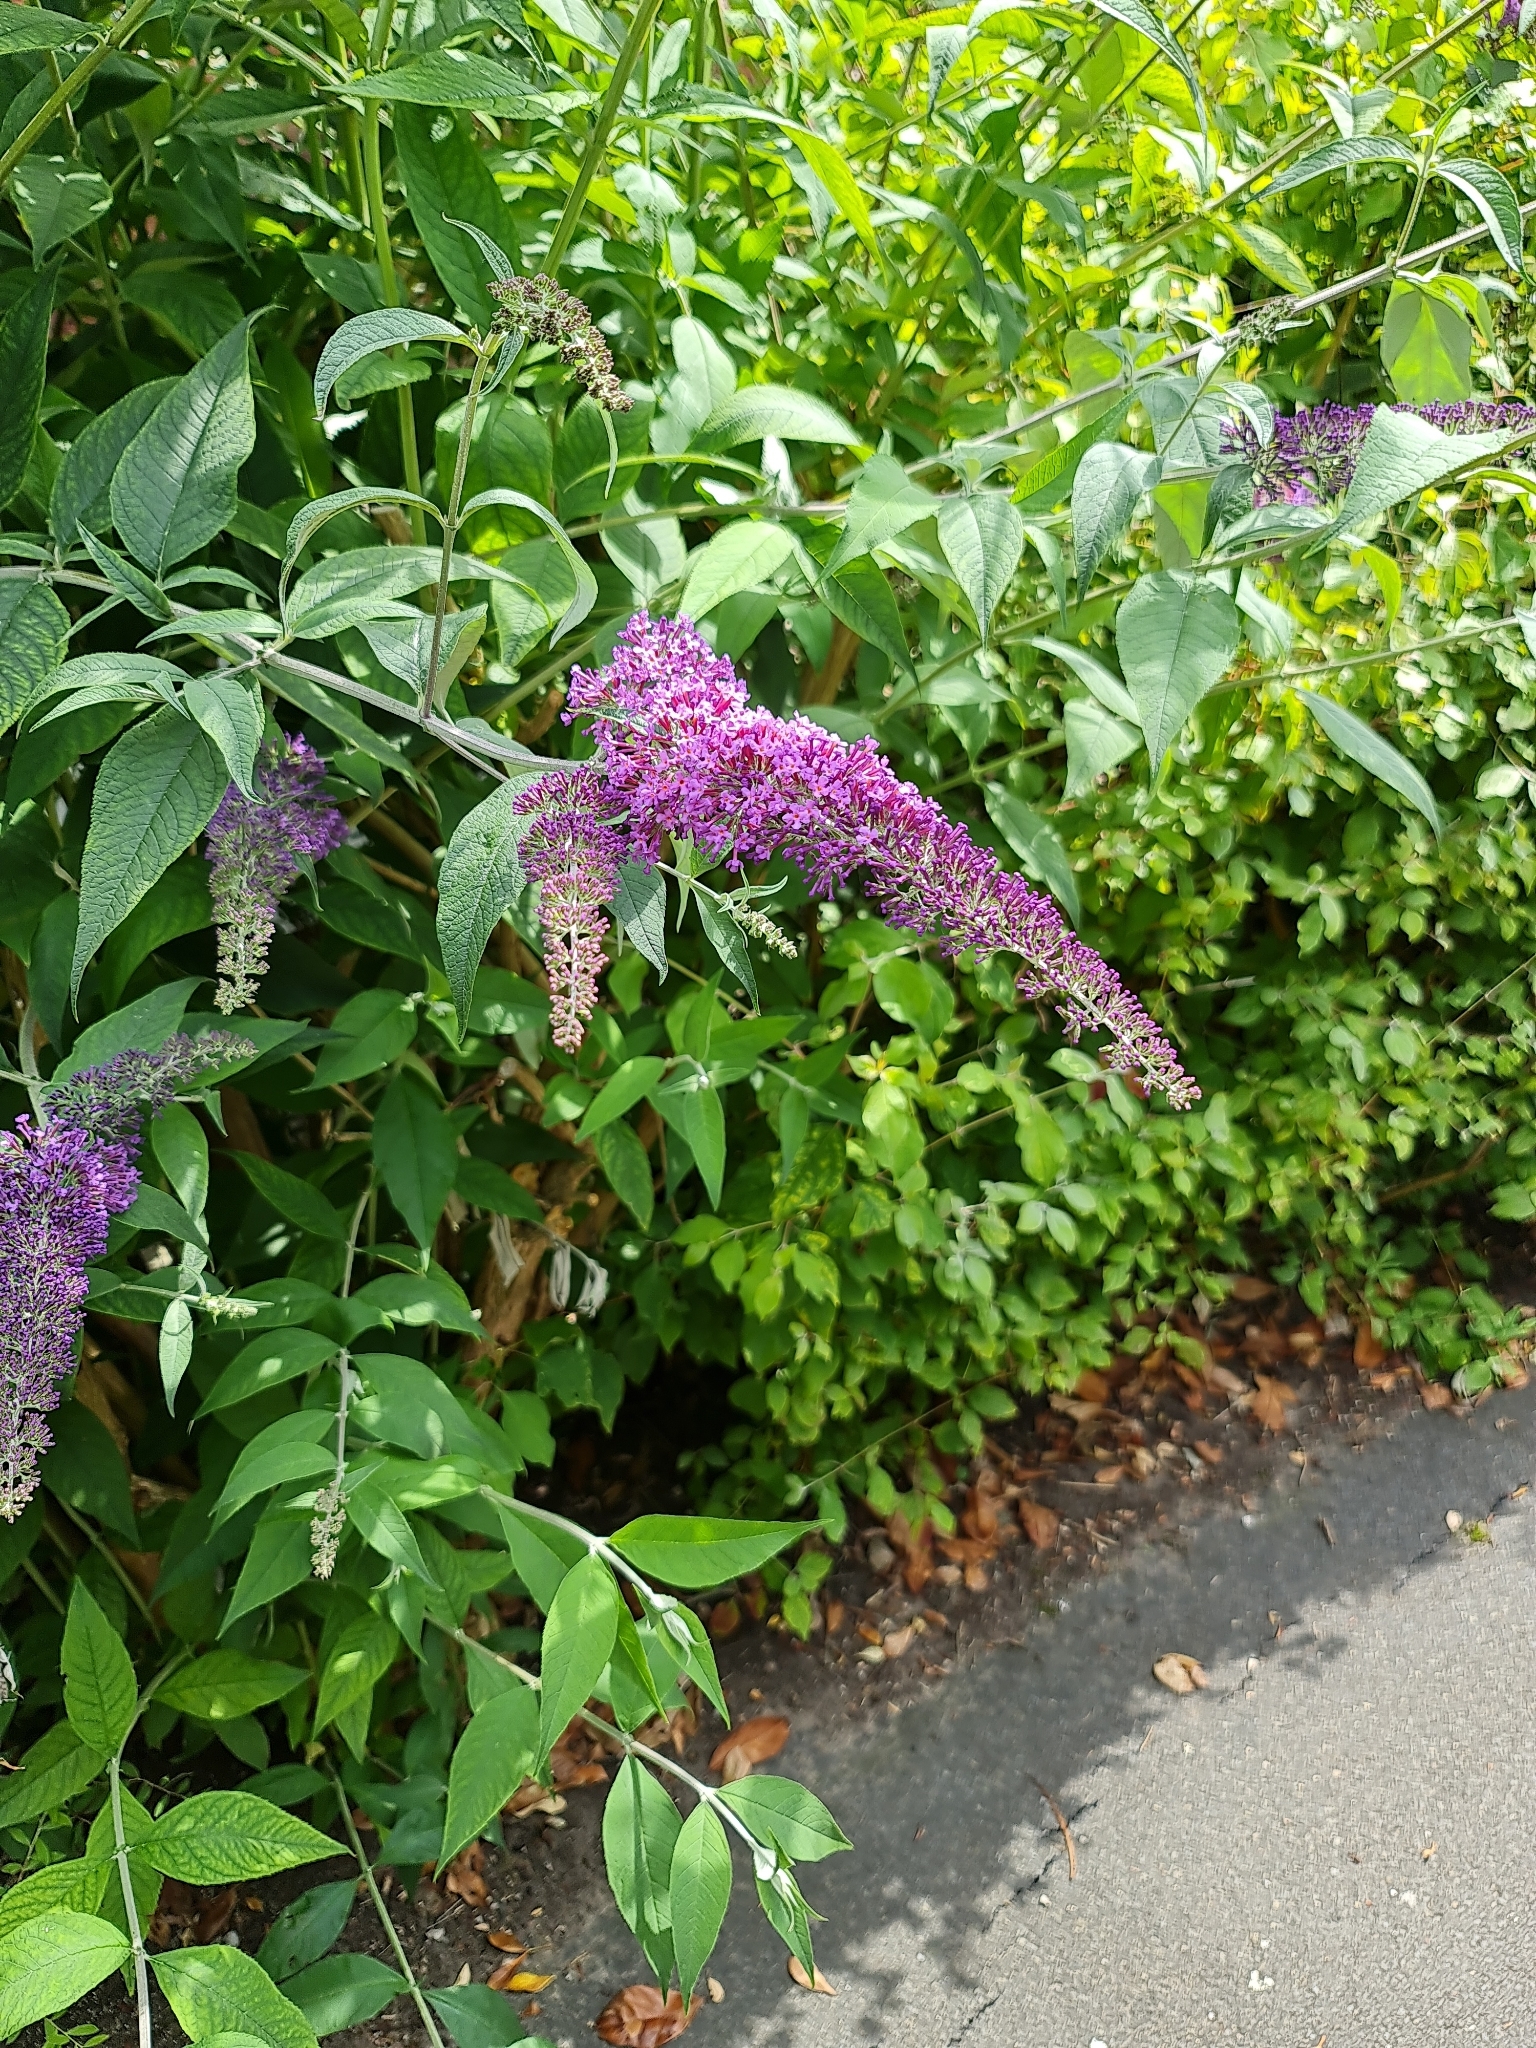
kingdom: Plantae
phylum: Tracheophyta
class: Magnoliopsida
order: Lamiales
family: Scrophulariaceae
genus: Buddleja
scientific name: Buddleja davidii
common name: Butterfly-bush
